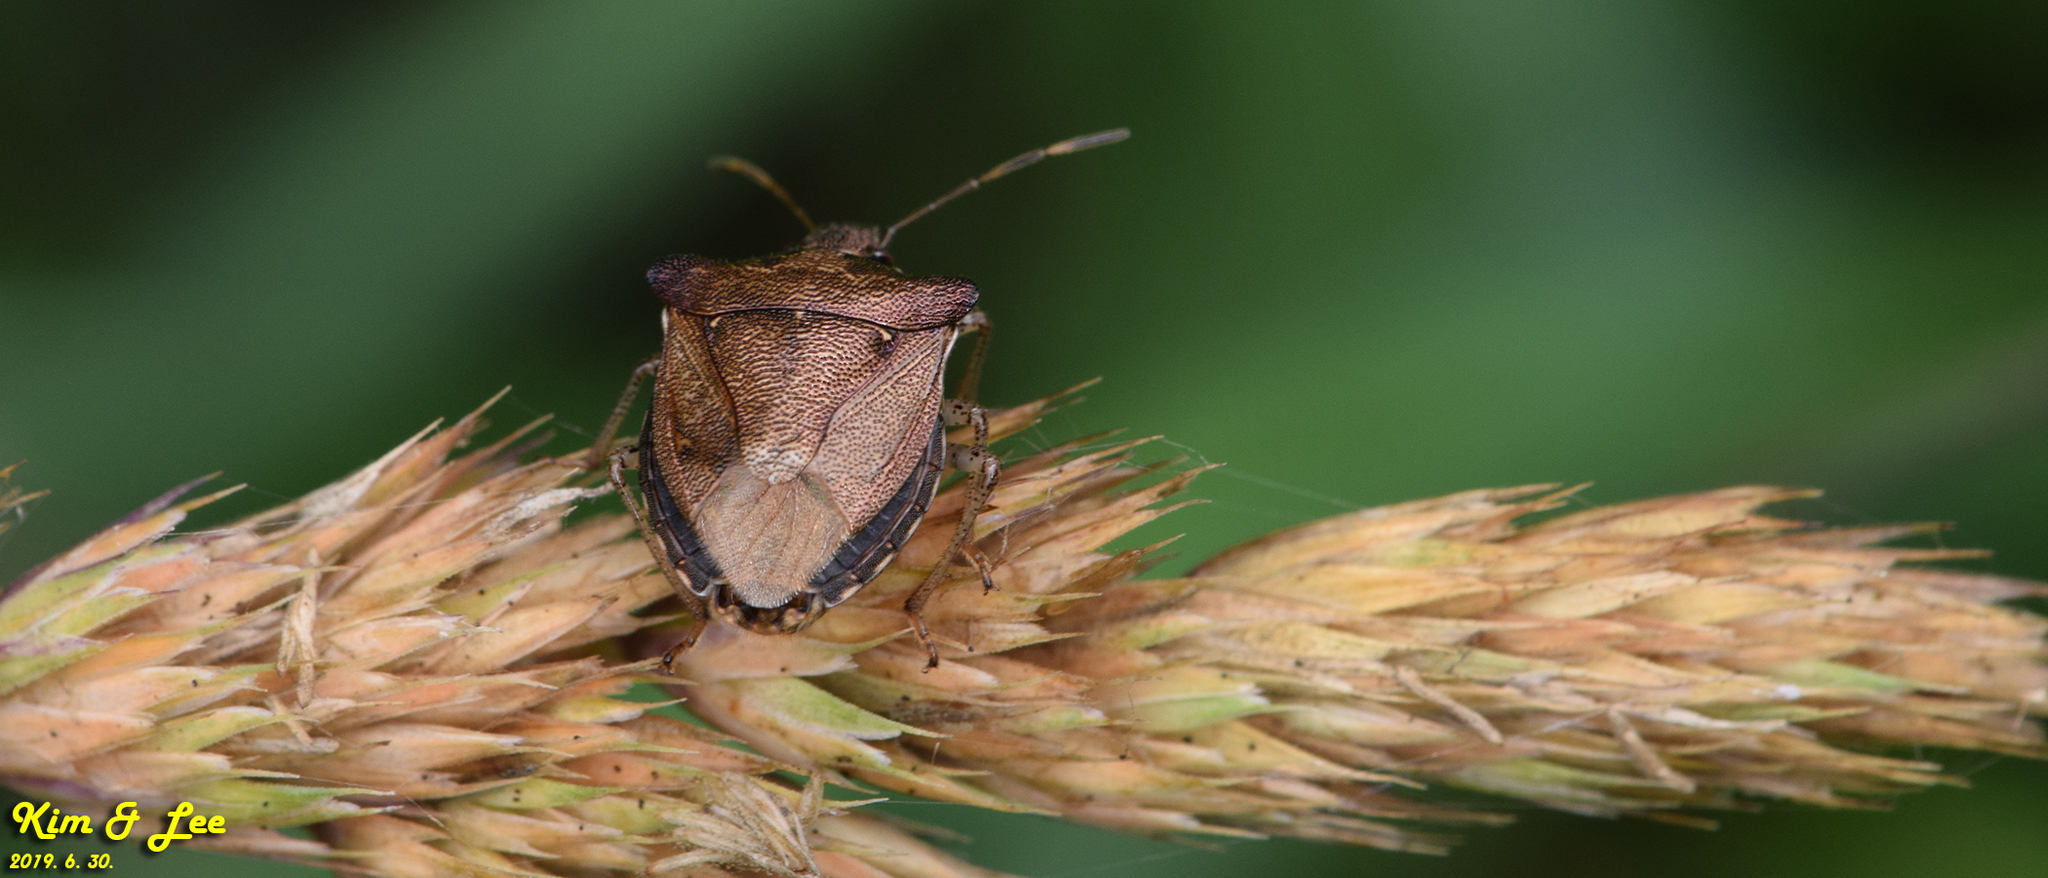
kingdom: Animalia
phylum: Arthropoda
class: Insecta
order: Hemiptera
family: Pentatomidae
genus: Carbula
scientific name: Carbula putoni
